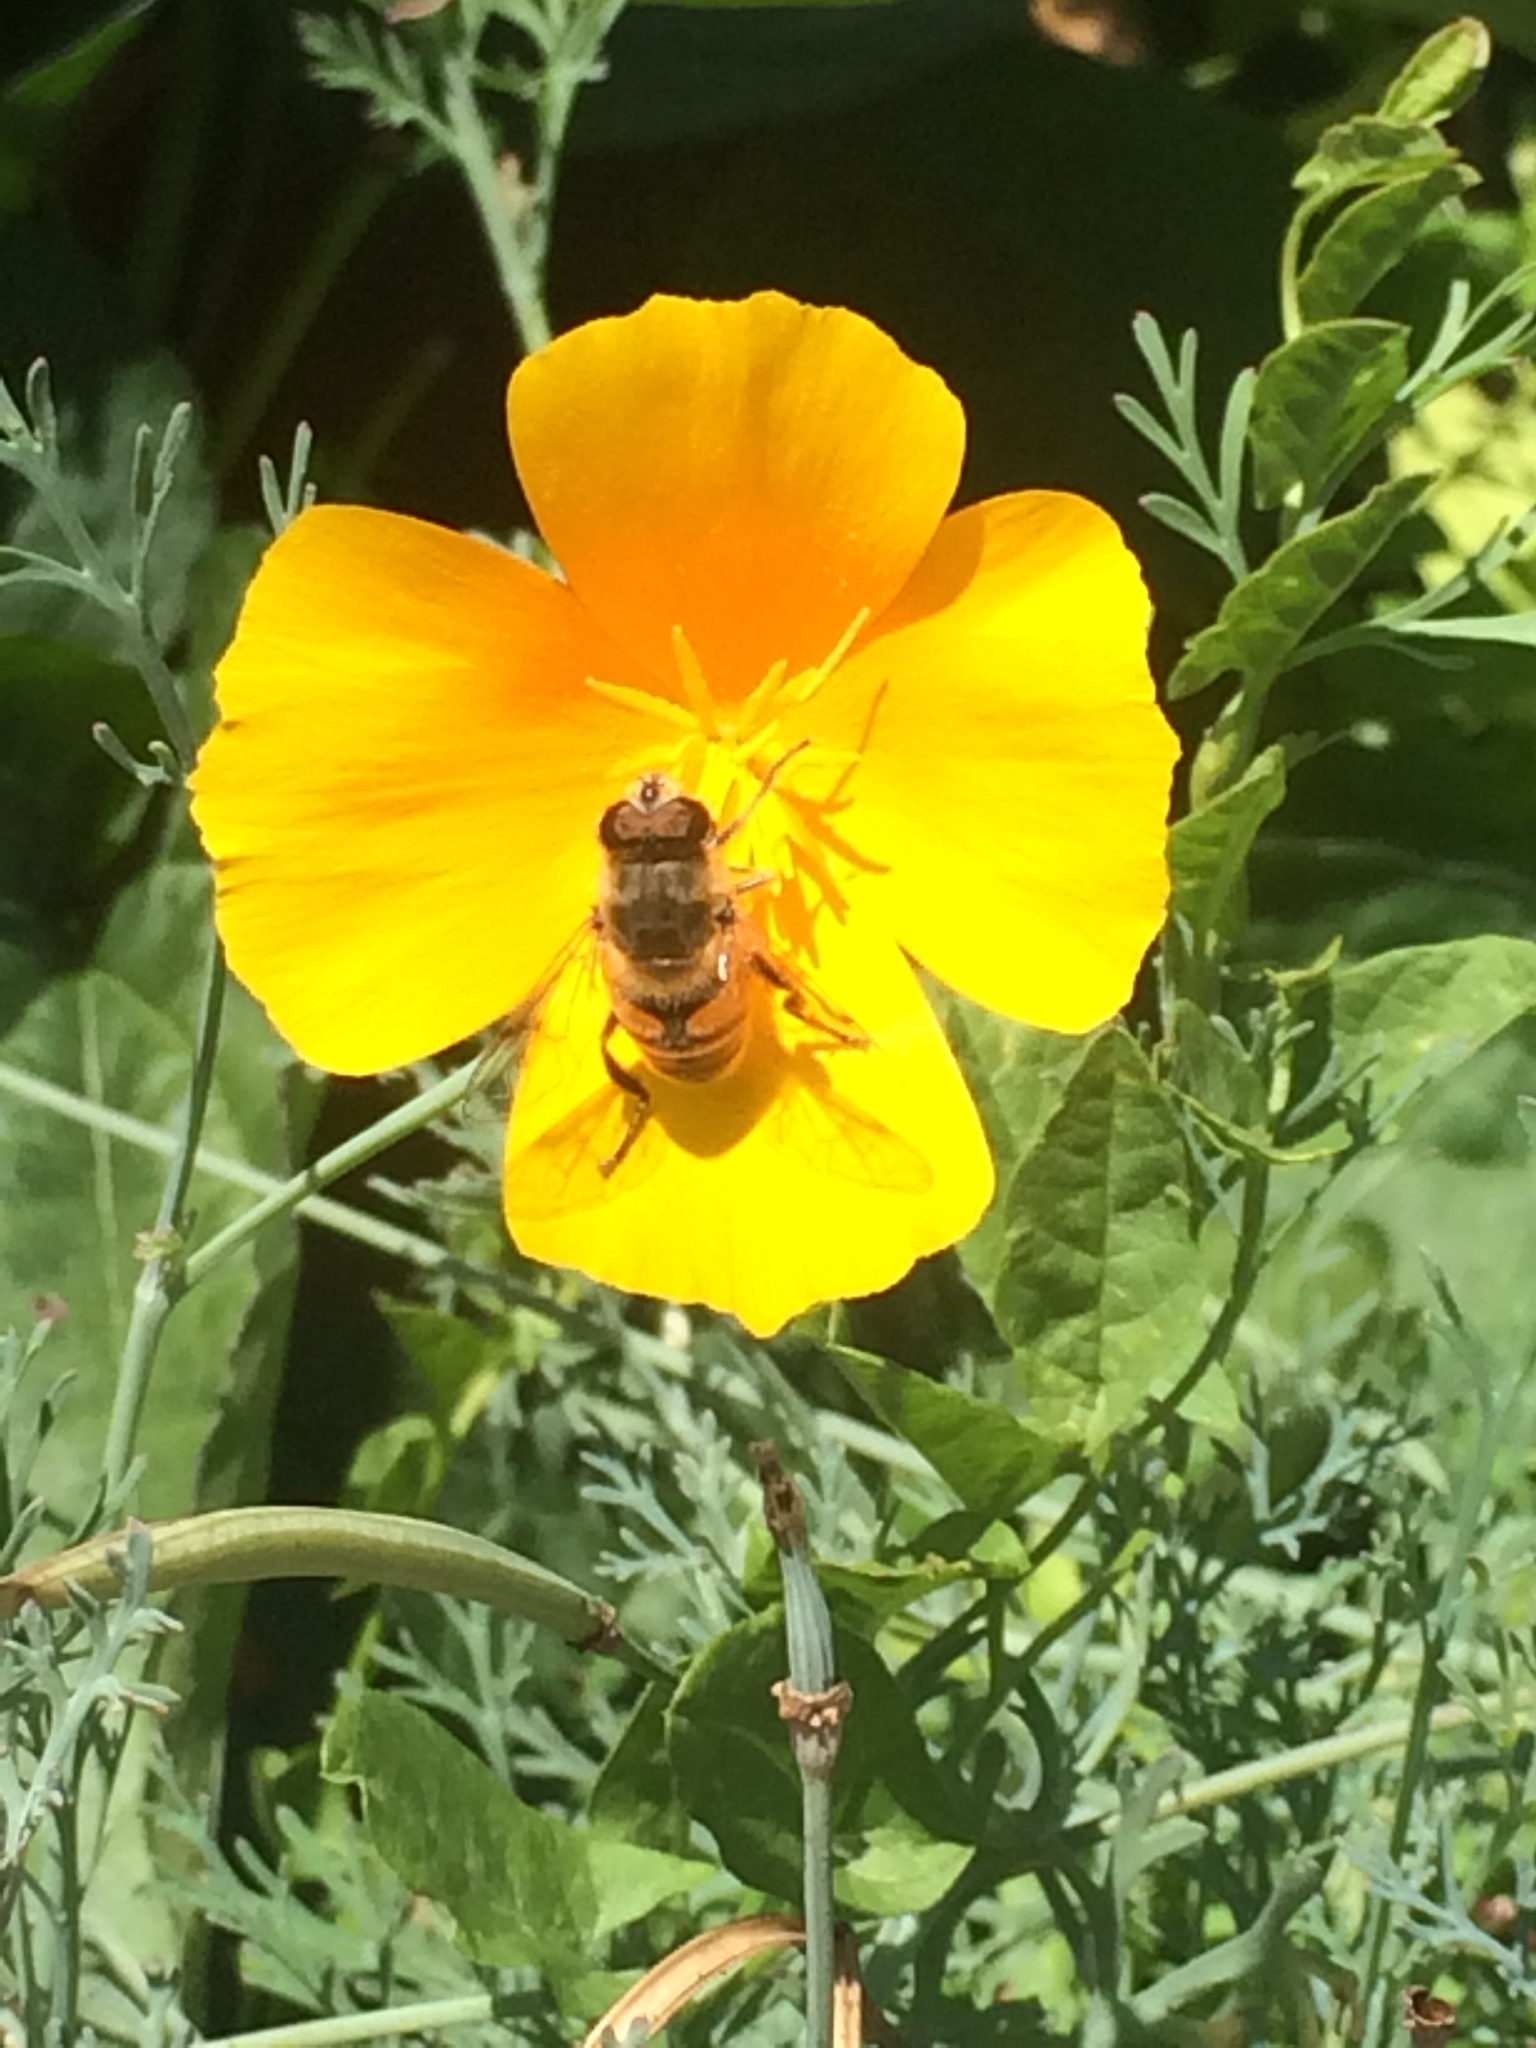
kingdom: Animalia
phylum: Arthropoda
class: Insecta
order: Diptera
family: Syrphidae
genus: Eristalis
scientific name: Eristalis tenax
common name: Drone fly
